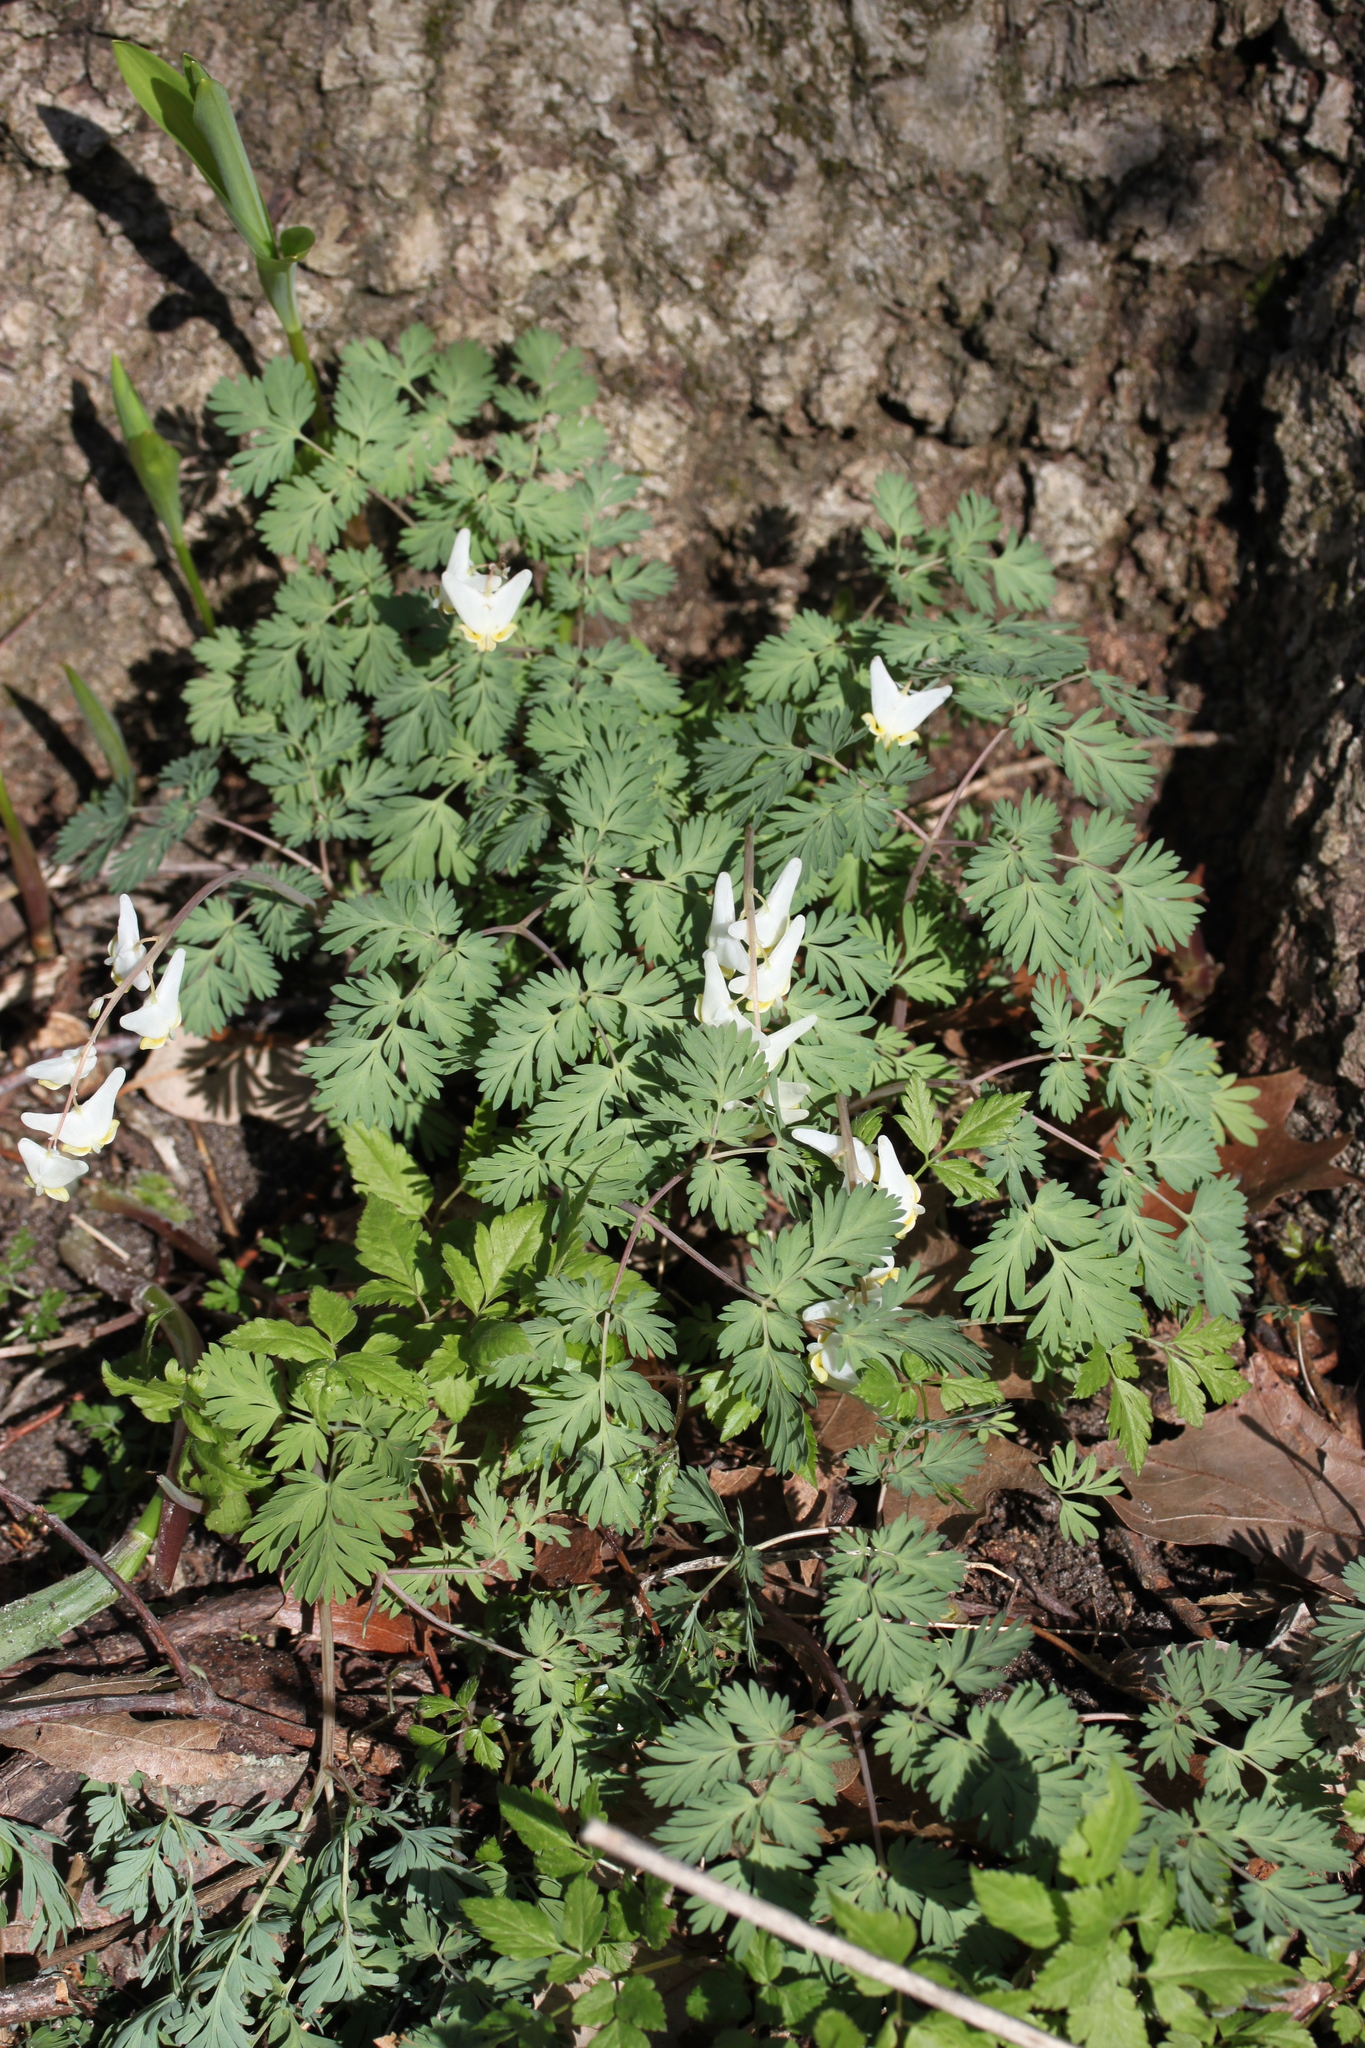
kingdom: Plantae
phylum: Tracheophyta
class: Magnoliopsida
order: Ranunculales
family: Papaveraceae
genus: Dicentra
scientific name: Dicentra cucullaria
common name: Dutchman's breeches
